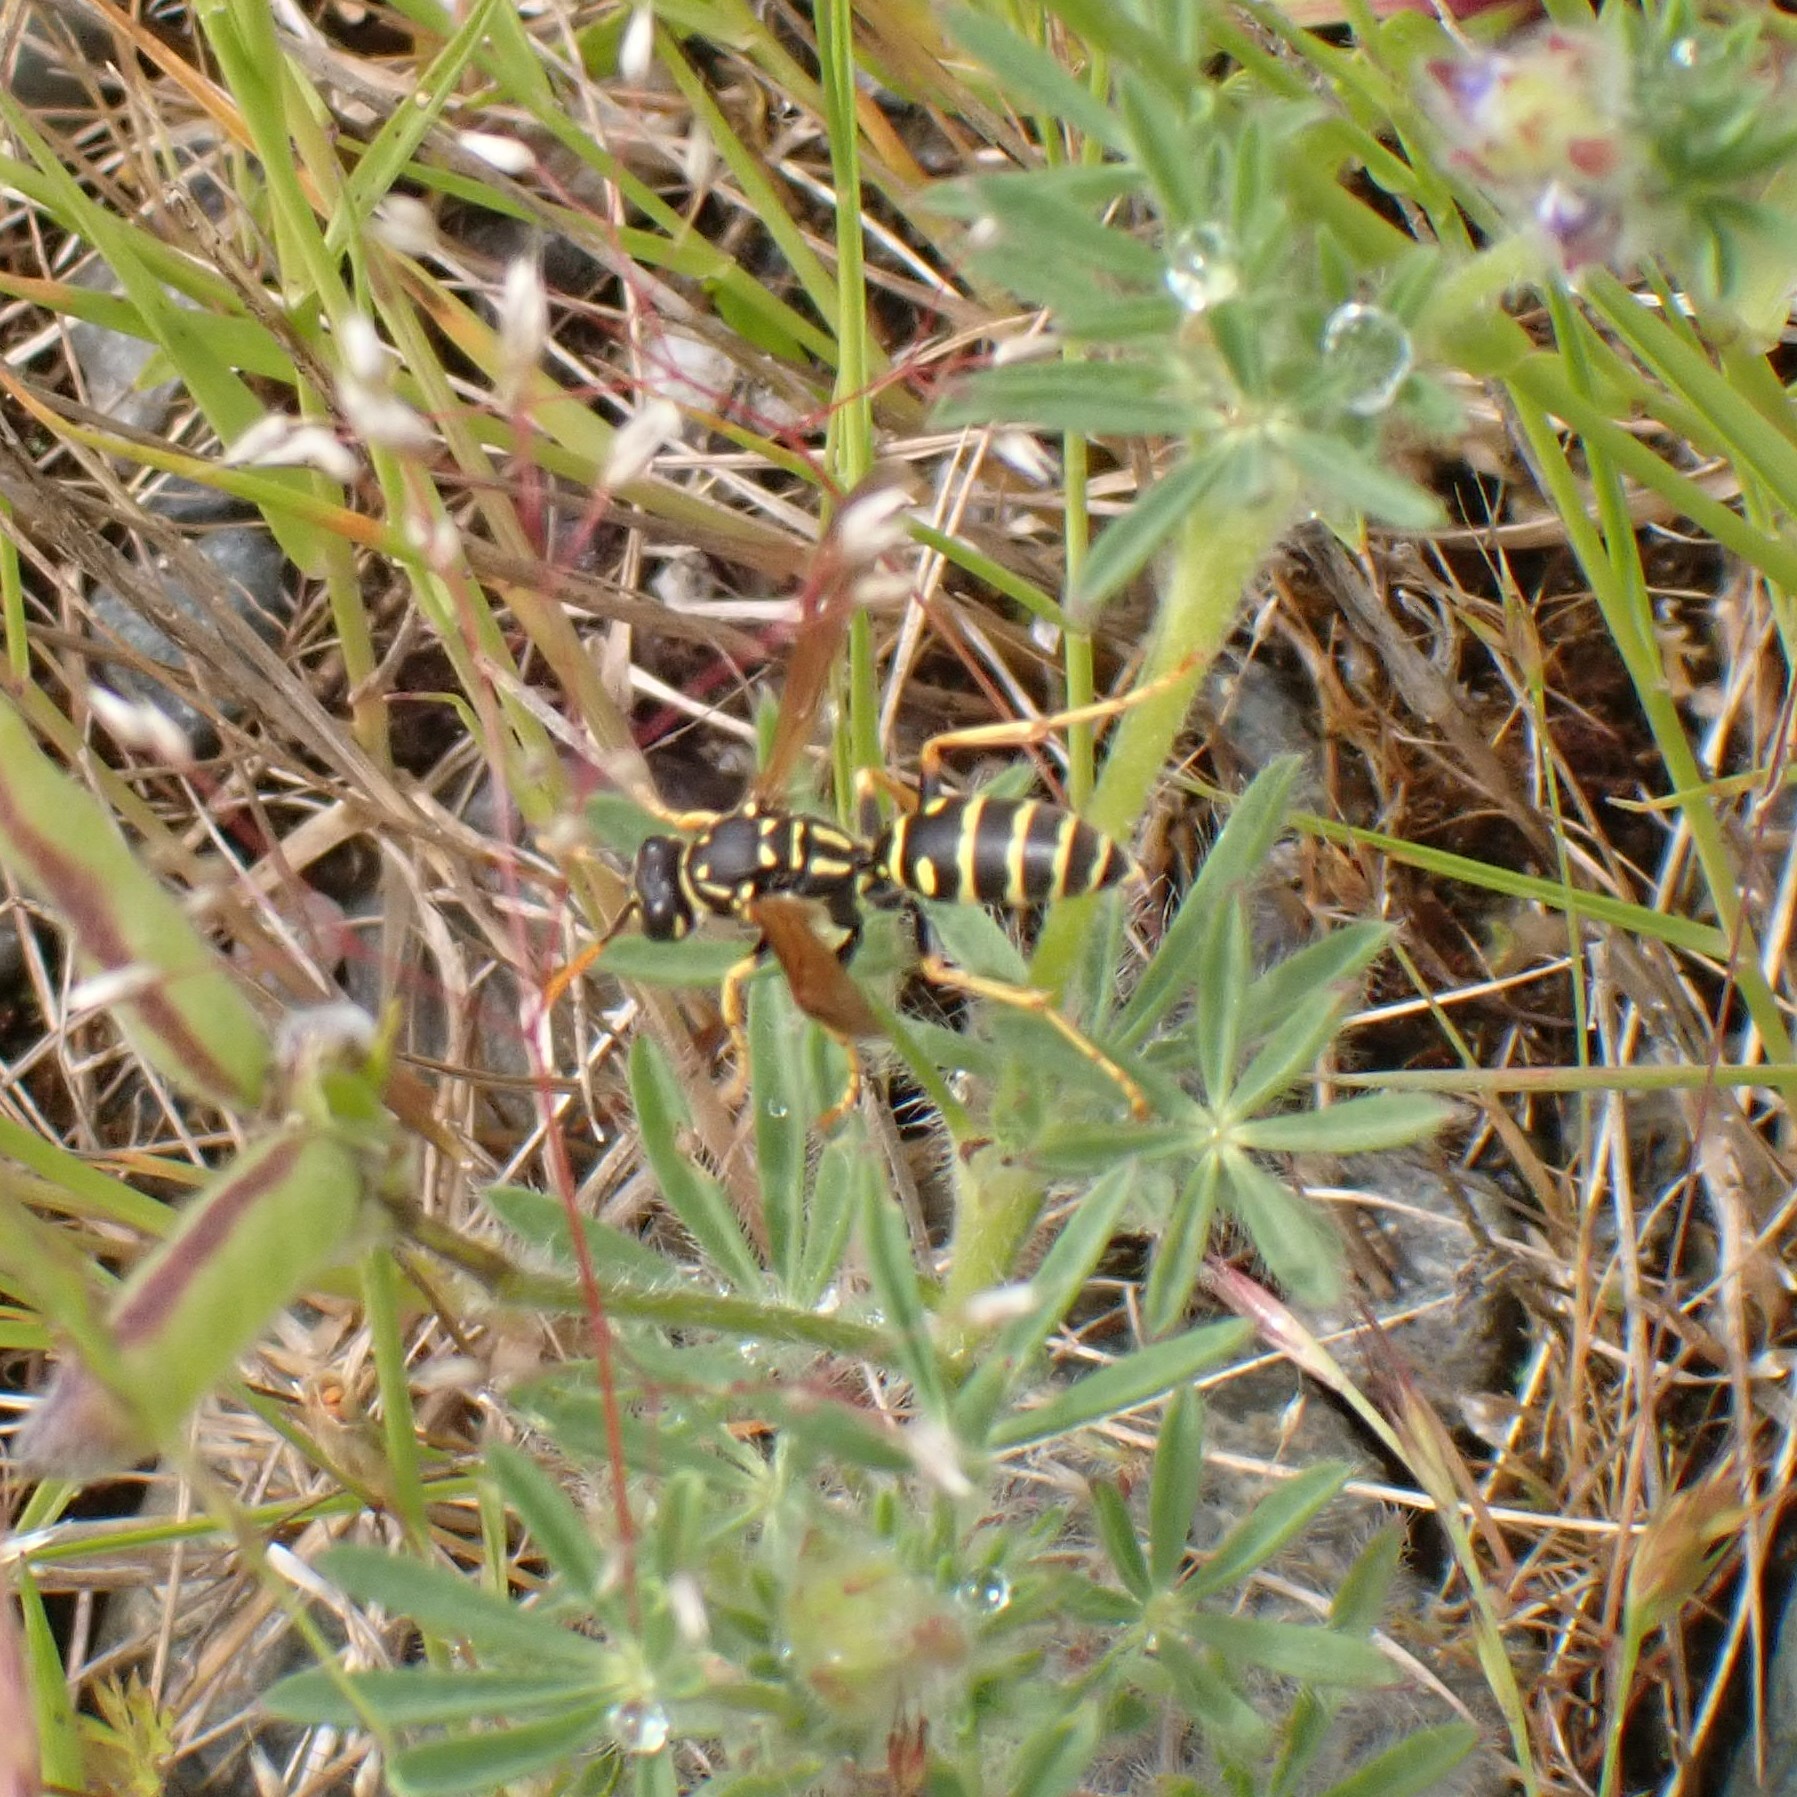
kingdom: Animalia
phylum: Arthropoda
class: Insecta
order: Hymenoptera
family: Eumenidae
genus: Polistes
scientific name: Polistes dominula
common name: Paper wasp
